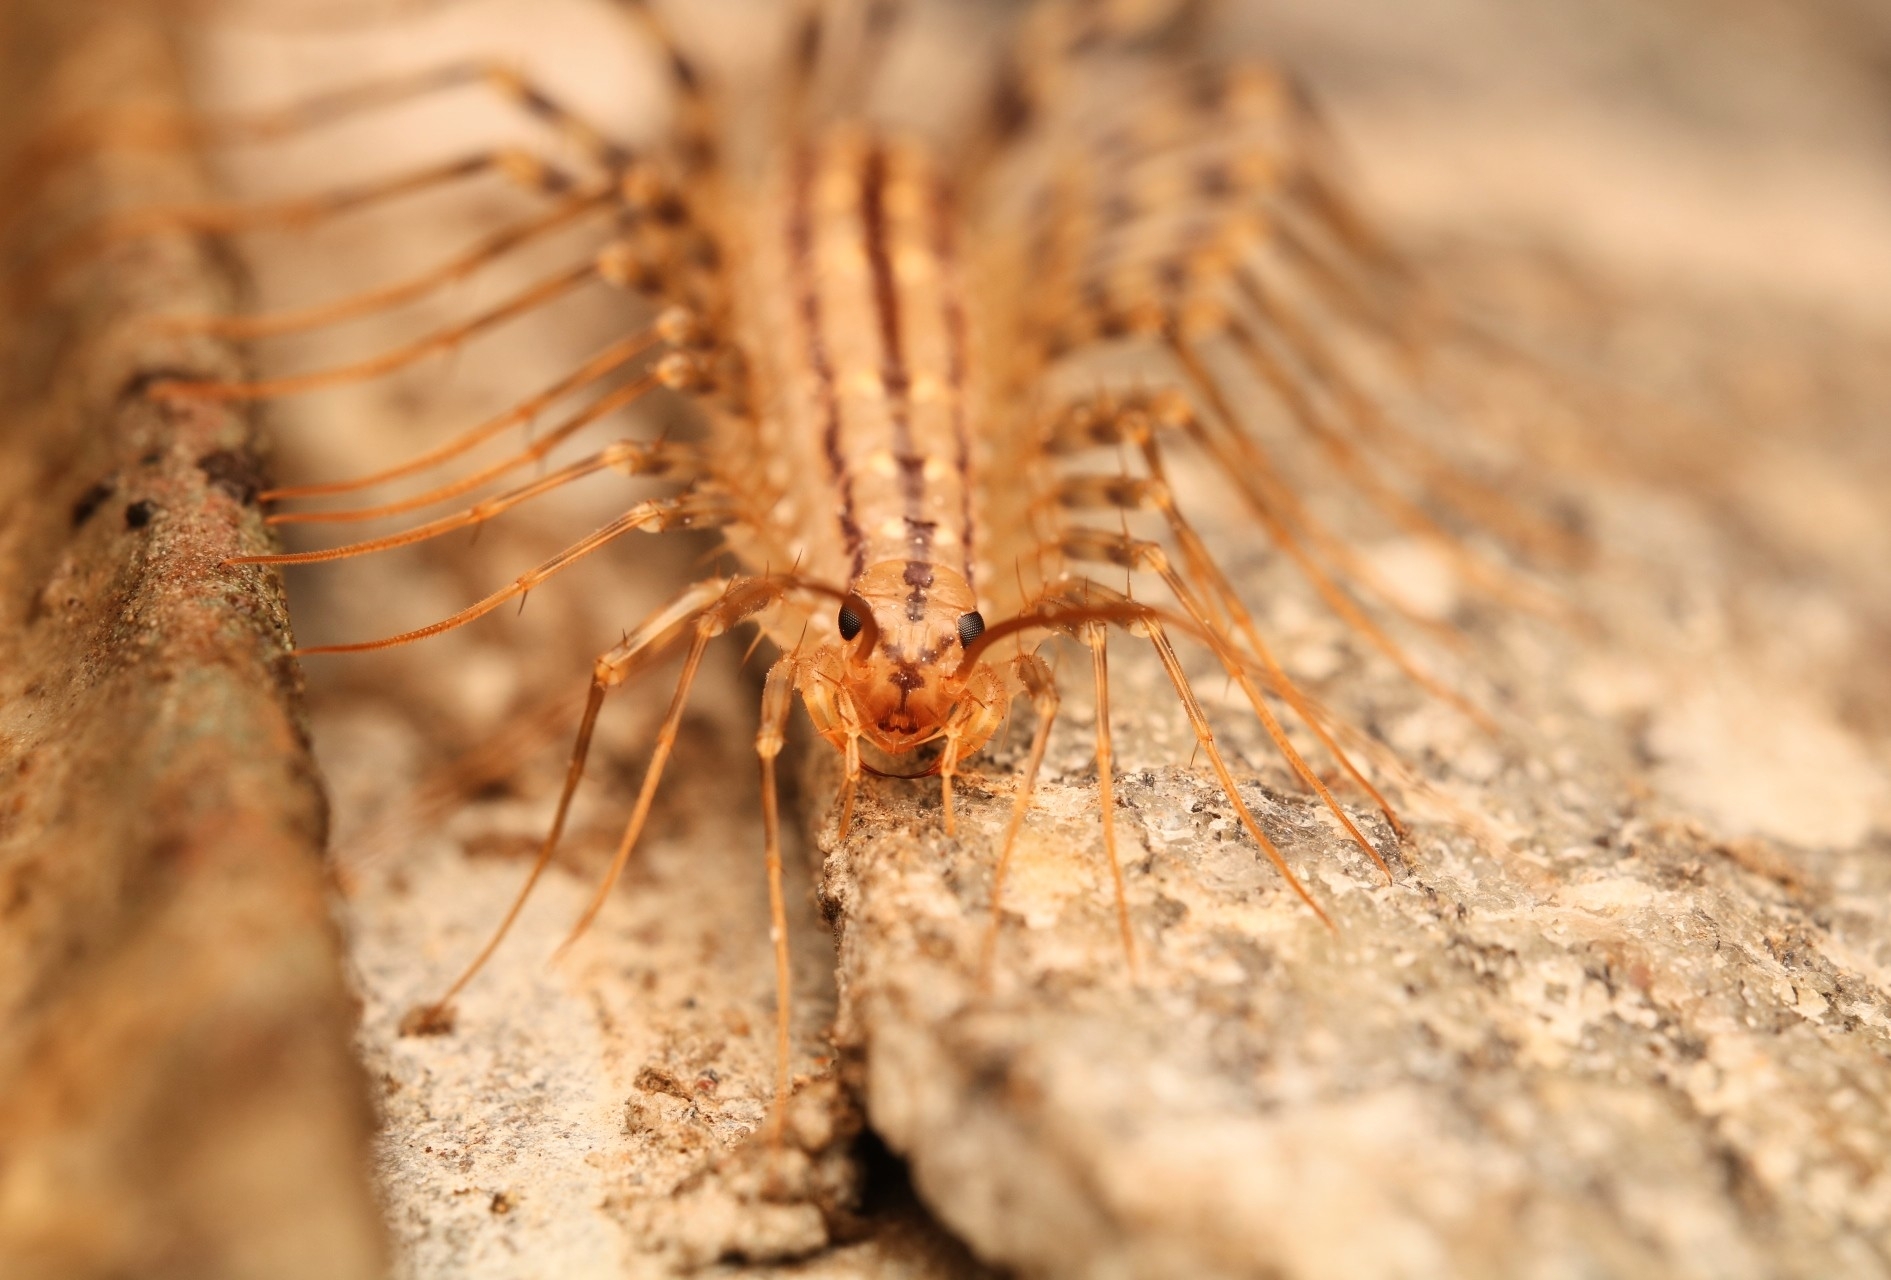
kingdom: Animalia
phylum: Arthropoda
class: Chilopoda
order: Scutigeromorpha
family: Scutigeridae
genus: Scutigera
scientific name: Scutigera coleoptrata
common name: House centipede
